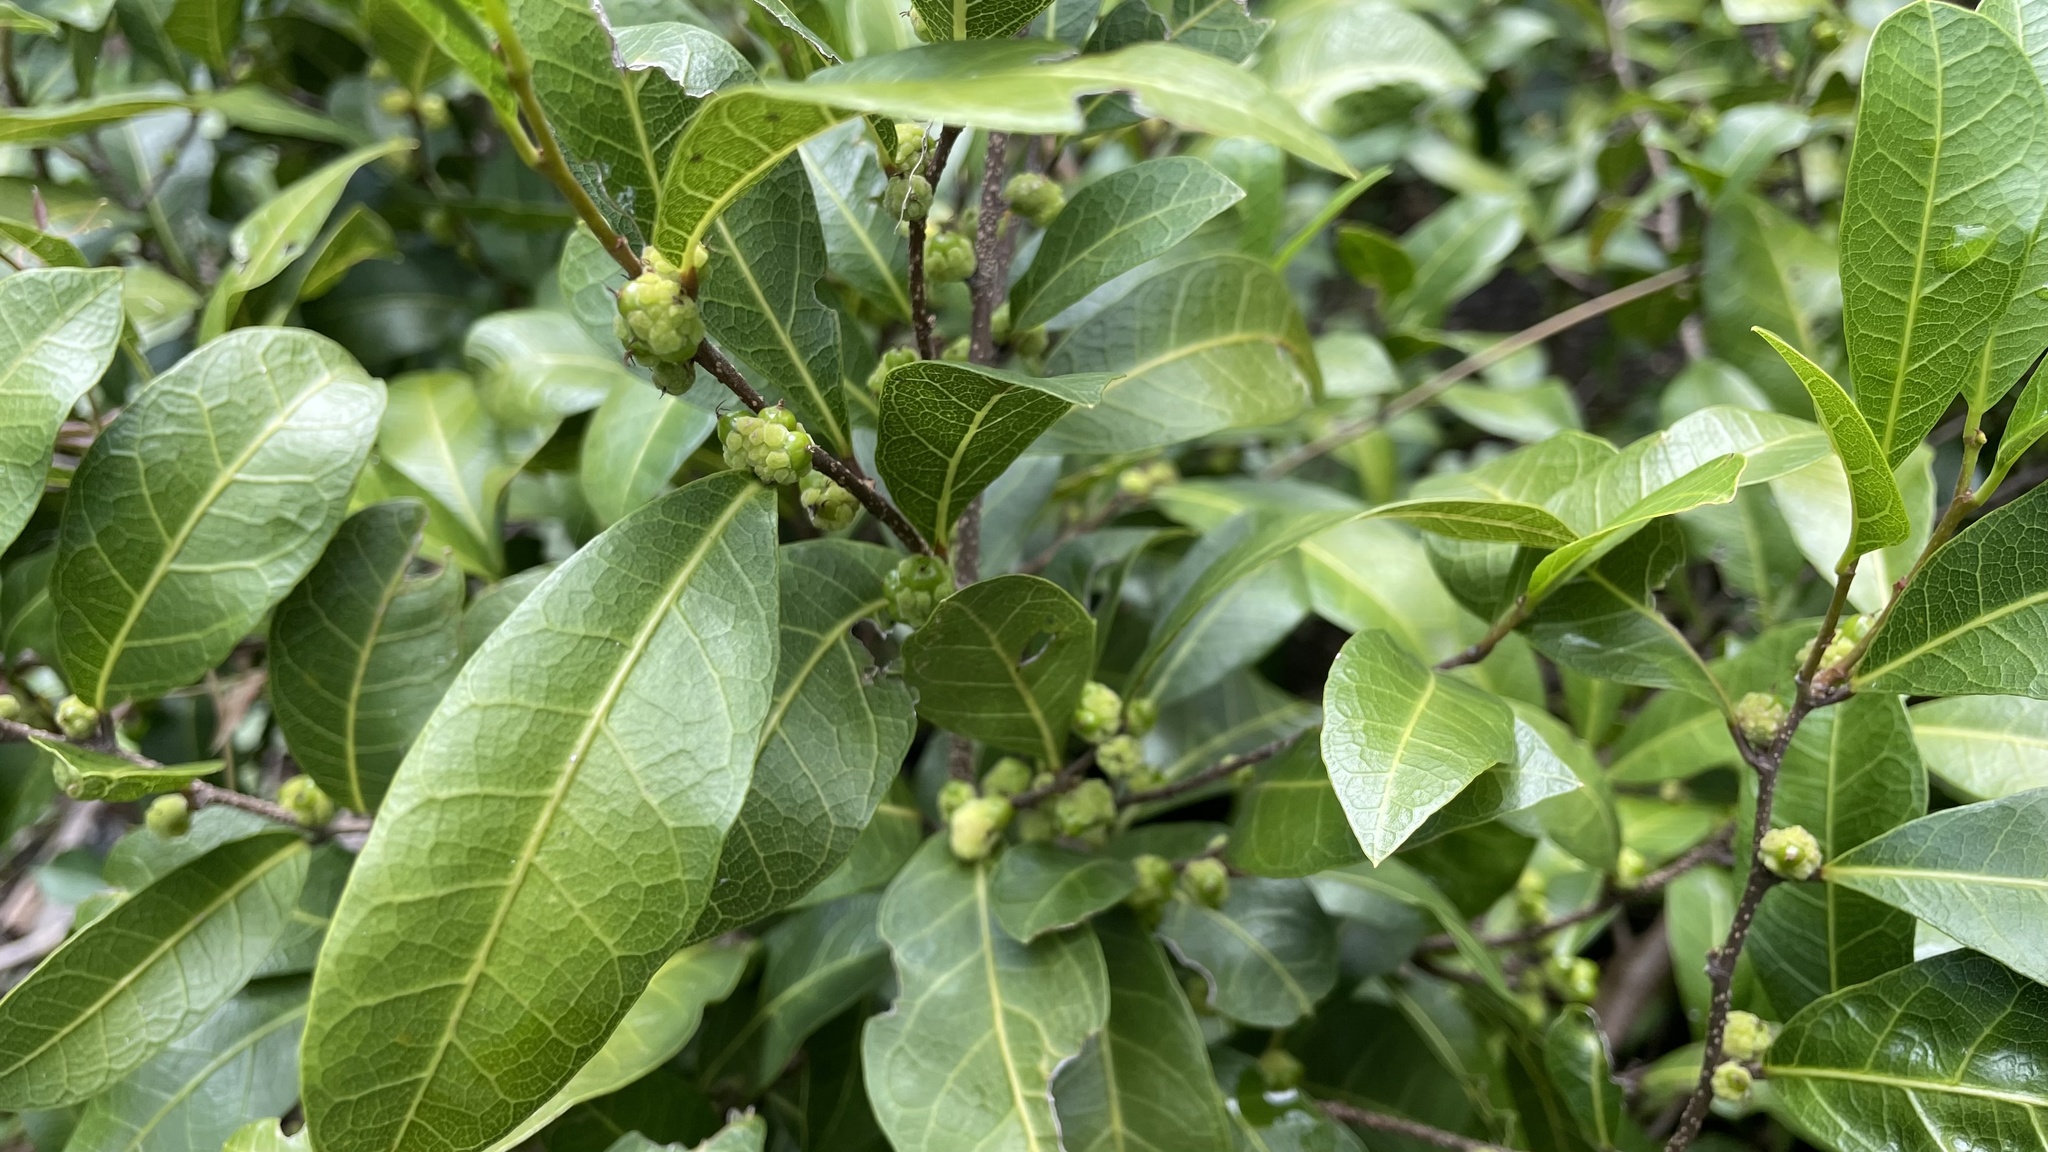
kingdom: Plantae
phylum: Tracheophyta
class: Magnoliopsida
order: Rosales
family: Moraceae
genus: Malaisia
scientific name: Malaisia scandens
